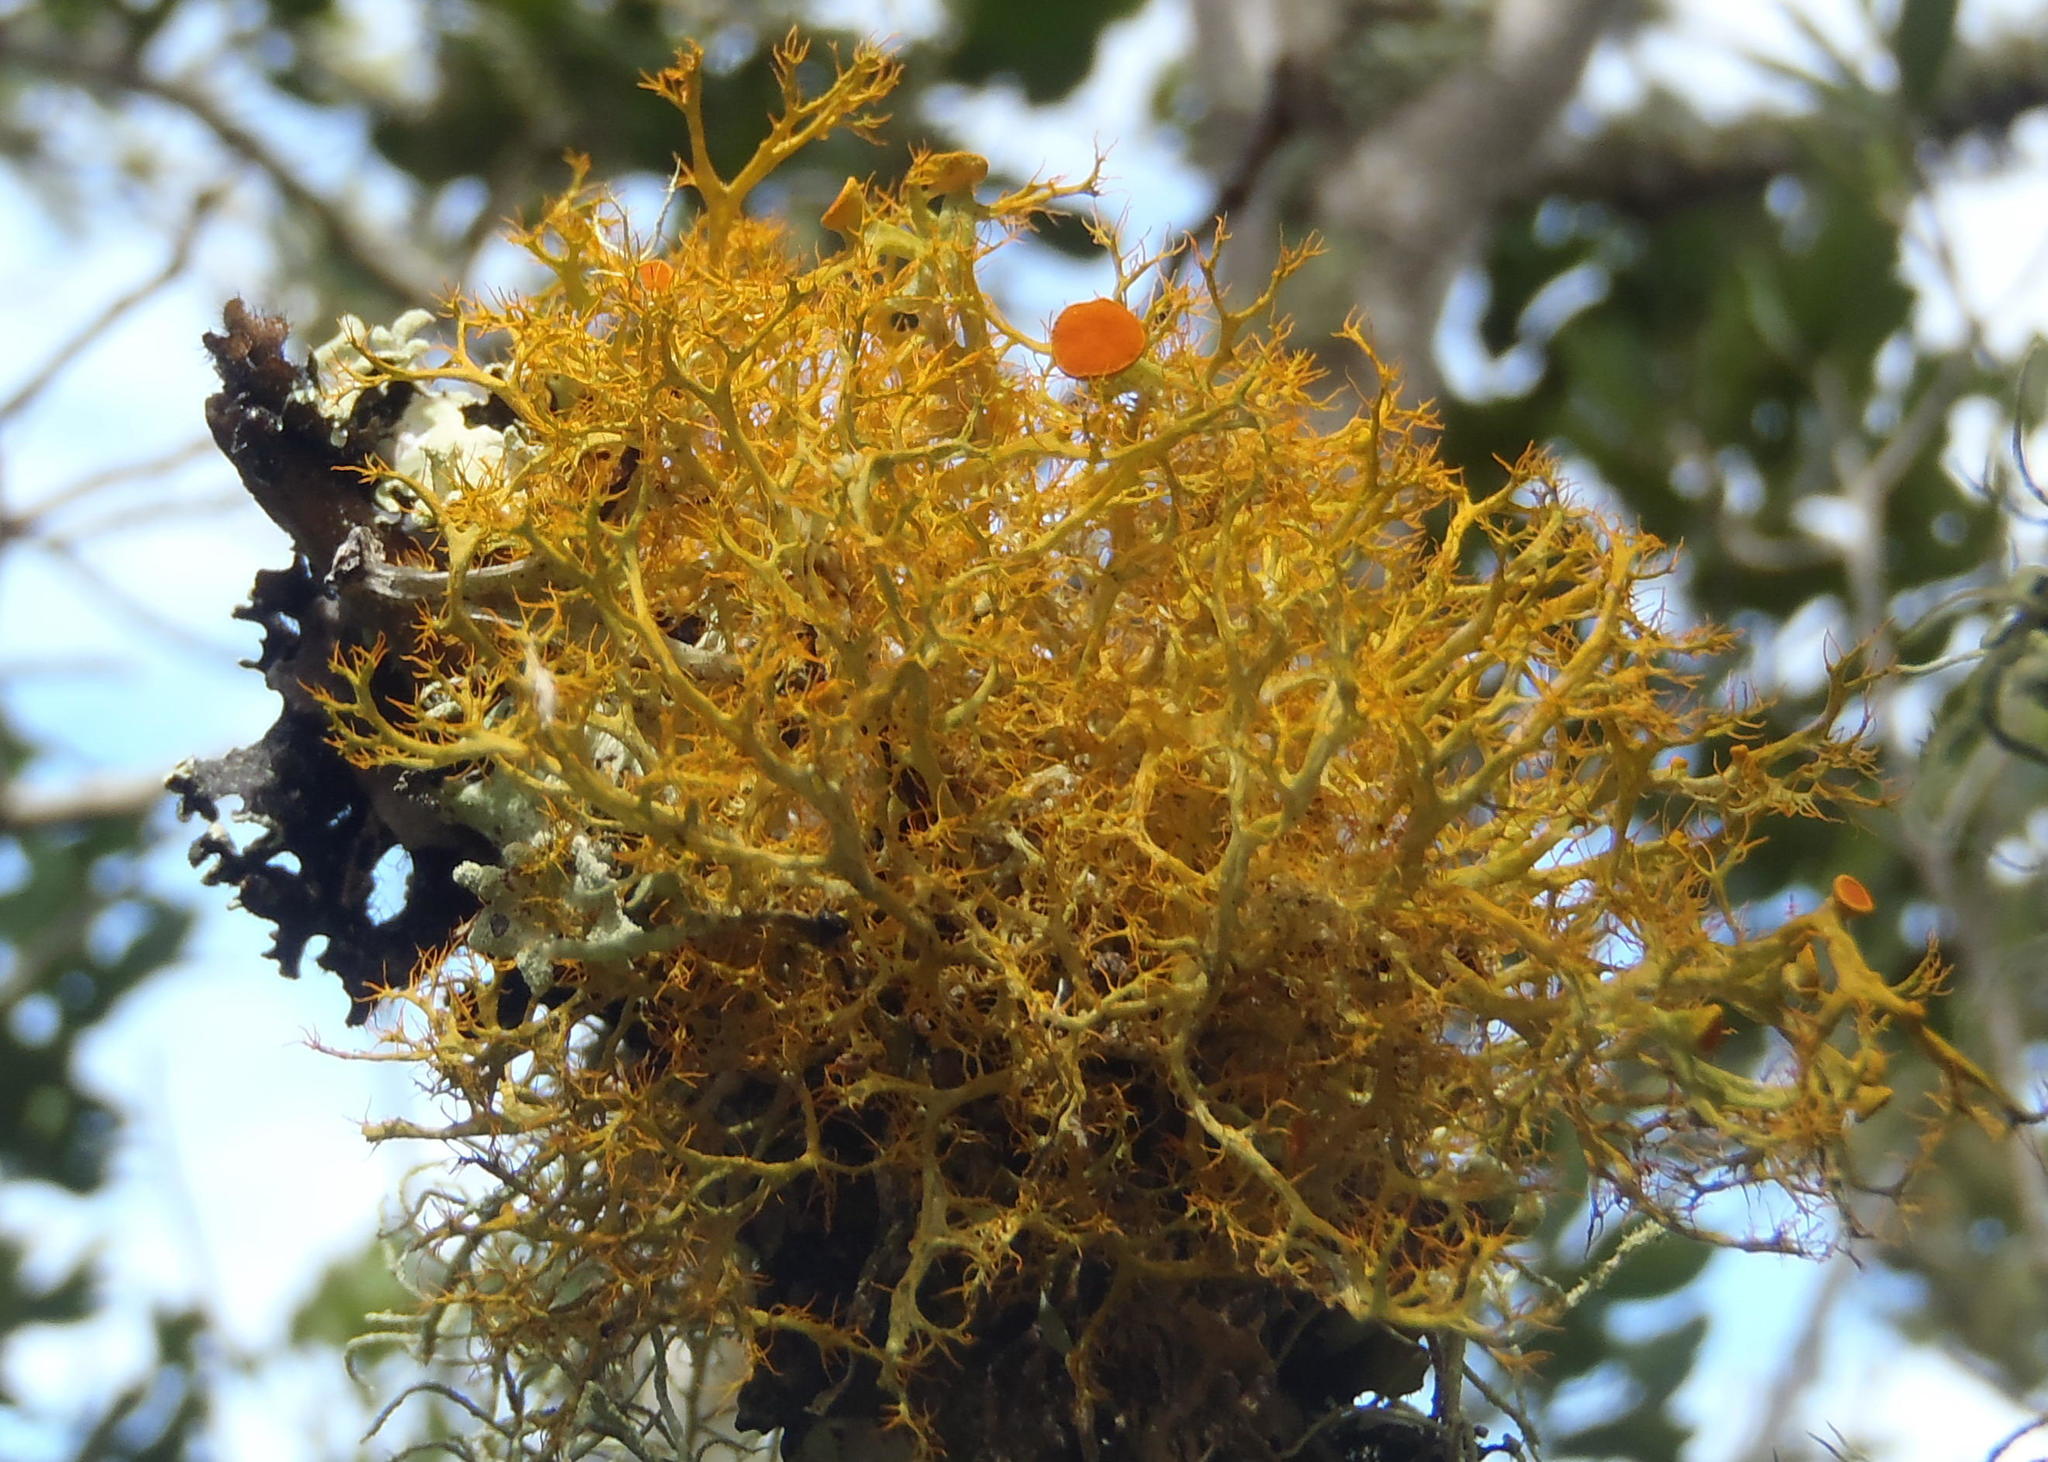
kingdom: Fungi
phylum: Ascomycota
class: Lecanoromycetes
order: Teloschistales
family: Teloschistaceae
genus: Teloschistes
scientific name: Teloschistes inflatus
